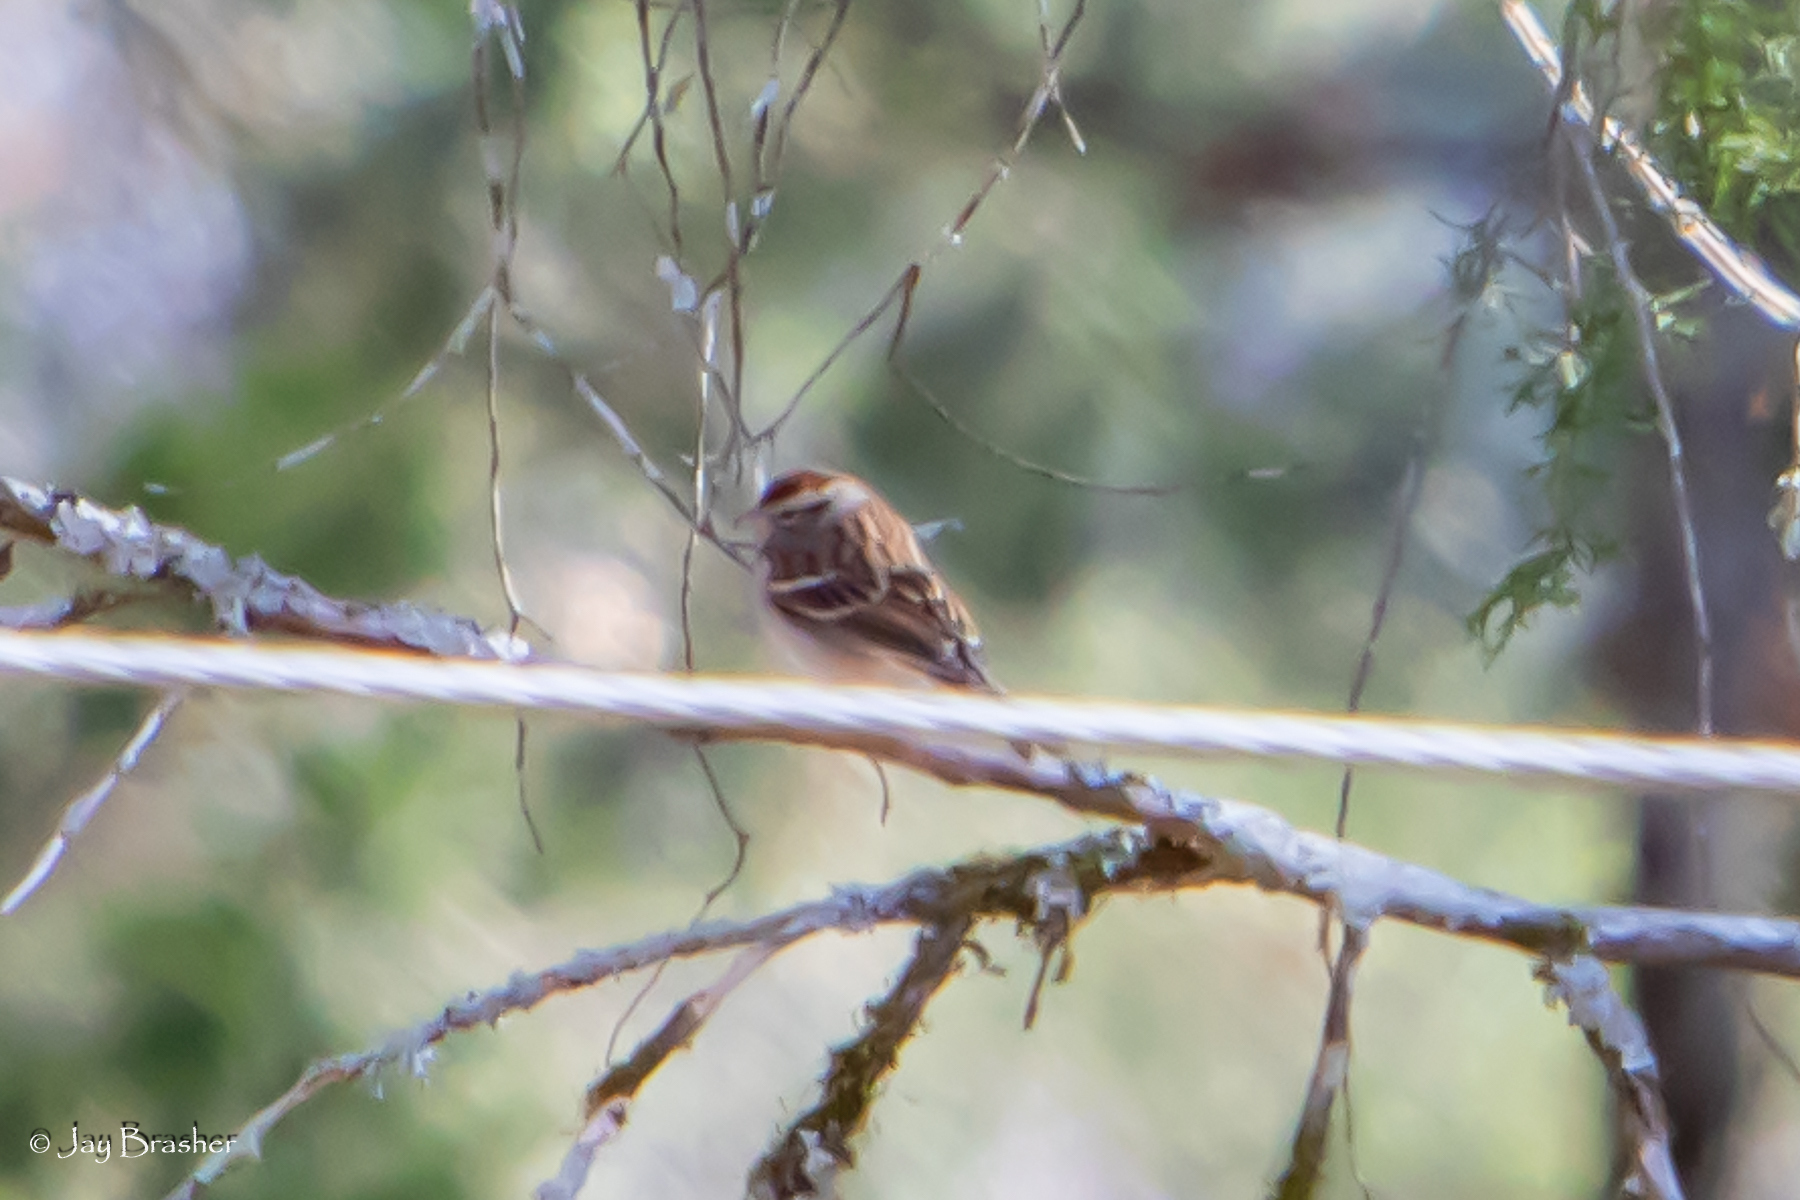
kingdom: Animalia
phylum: Chordata
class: Aves
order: Passeriformes
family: Passerellidae
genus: Spizella
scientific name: Spizella passerina
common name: Chipping sparrow
